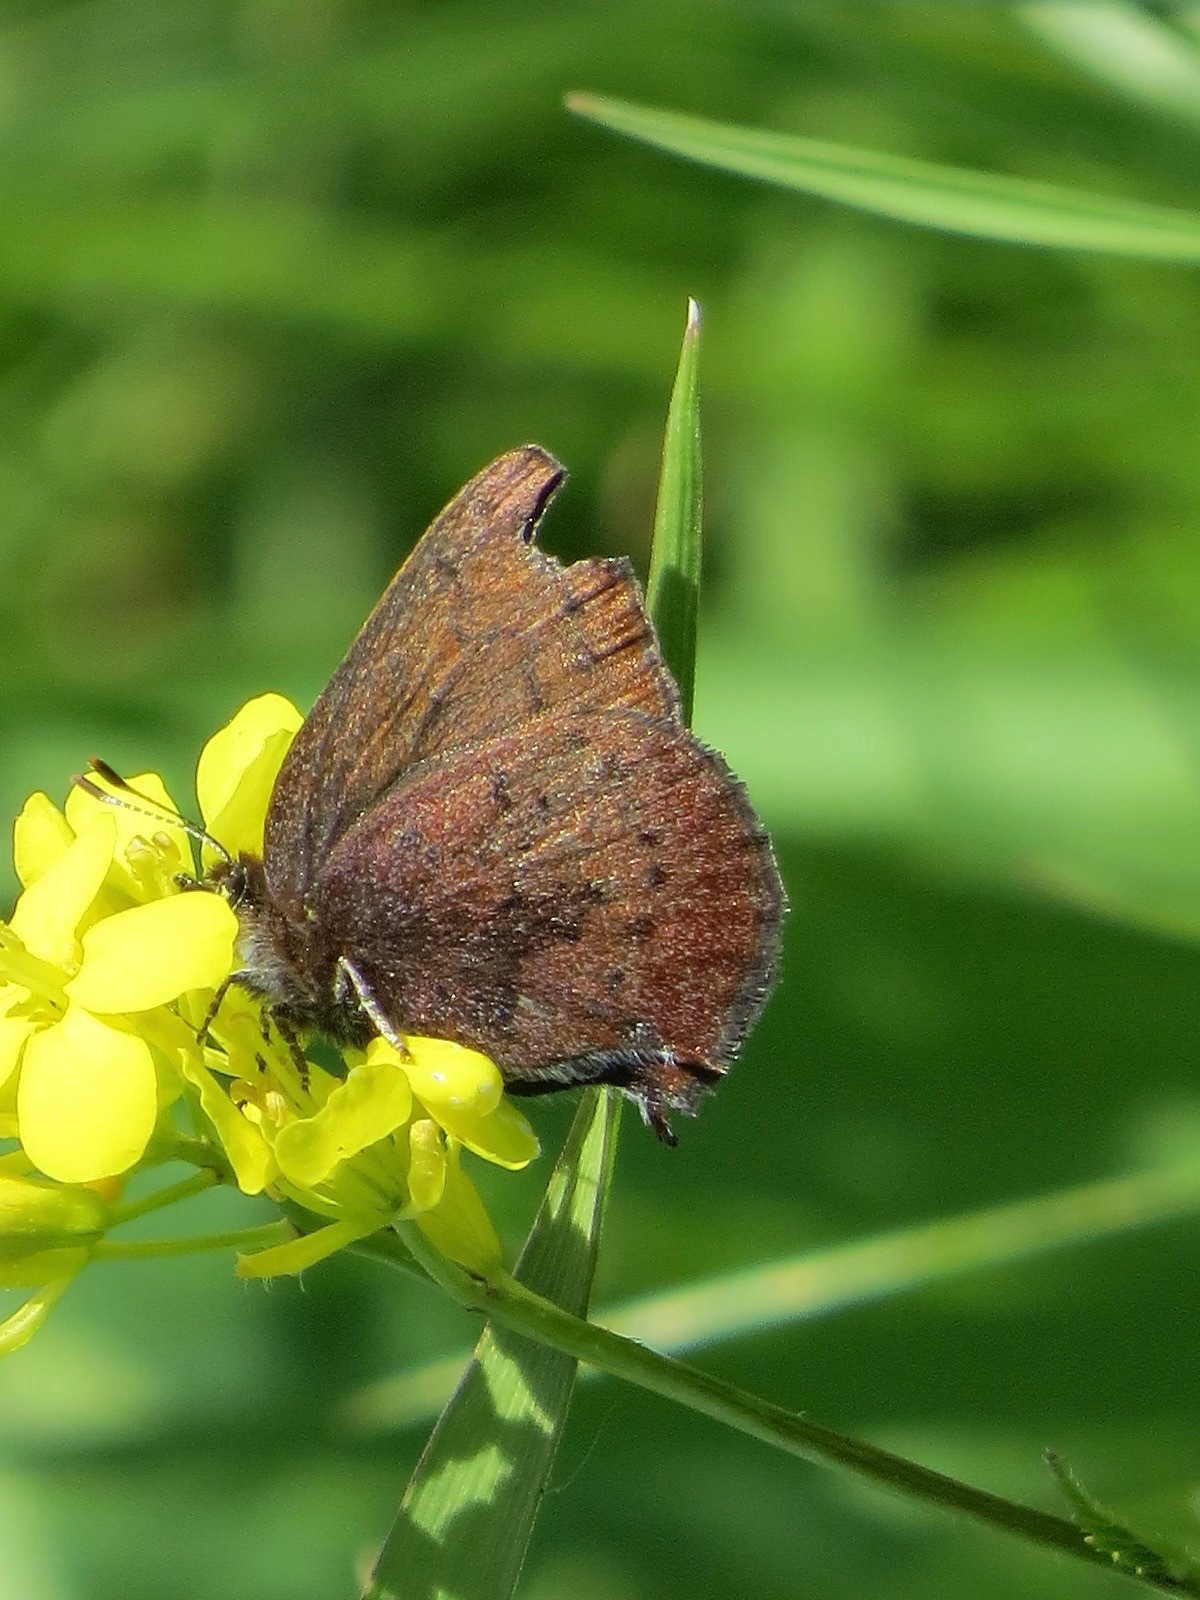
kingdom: Animalia
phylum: Arthropoda
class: Insecta
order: Lepidoptera
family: Lycaenidae
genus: Incisalia
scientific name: Incisalia irioides
